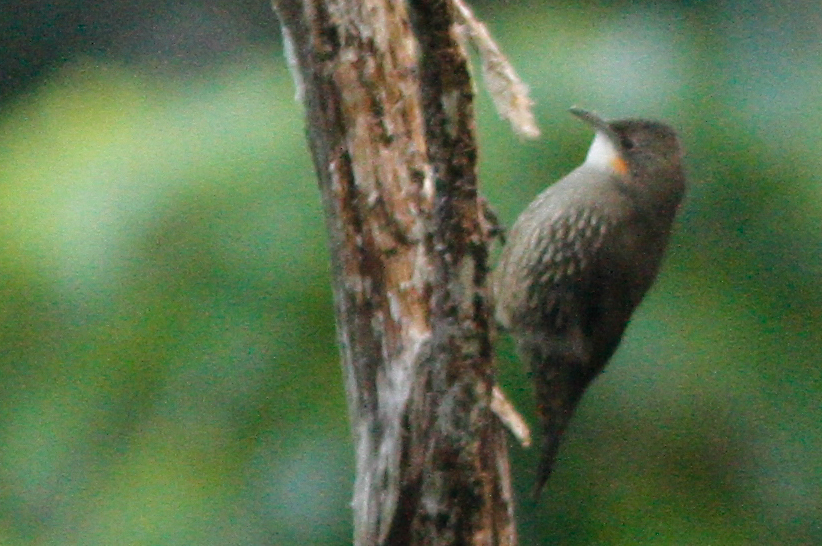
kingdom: Animalia
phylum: Chordata
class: Aves
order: Passeriformes
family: Climacteridae
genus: Cormobates
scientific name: Cormobates leucophaea
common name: White-throated treecreeper
